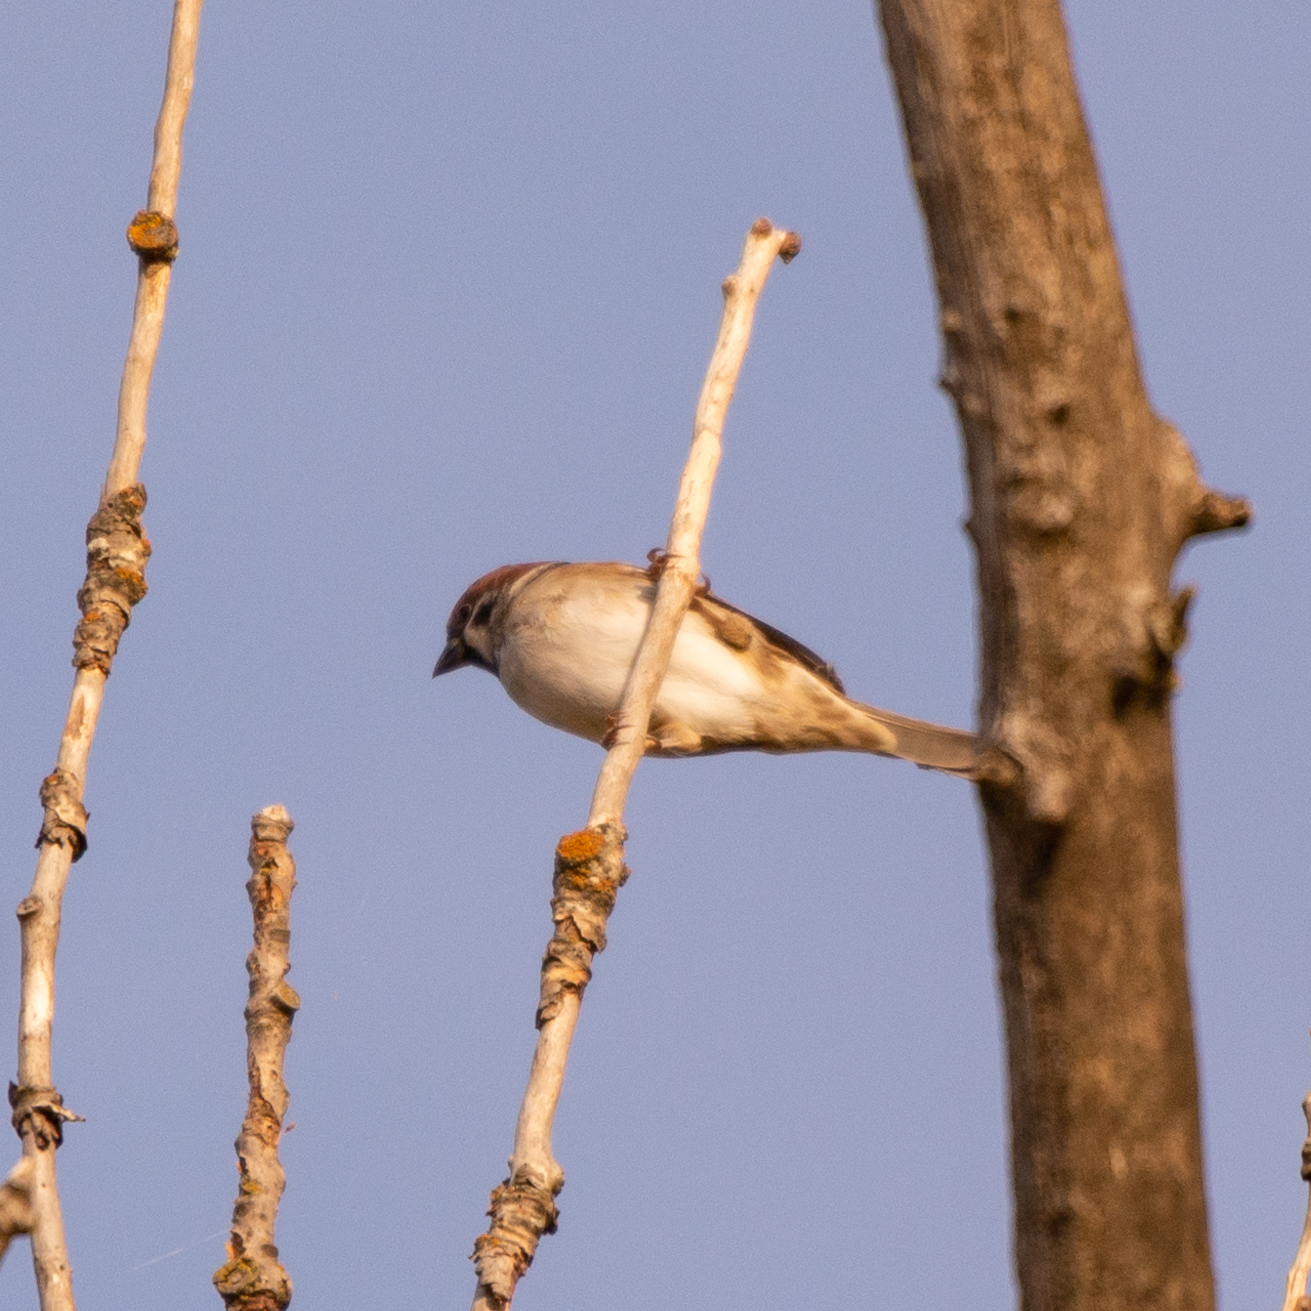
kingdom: Animalia
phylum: Chordata
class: Aves
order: Passeriformes
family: Passeridae
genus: Passer
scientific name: Passer montanus
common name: Eurasian tree sparrow
